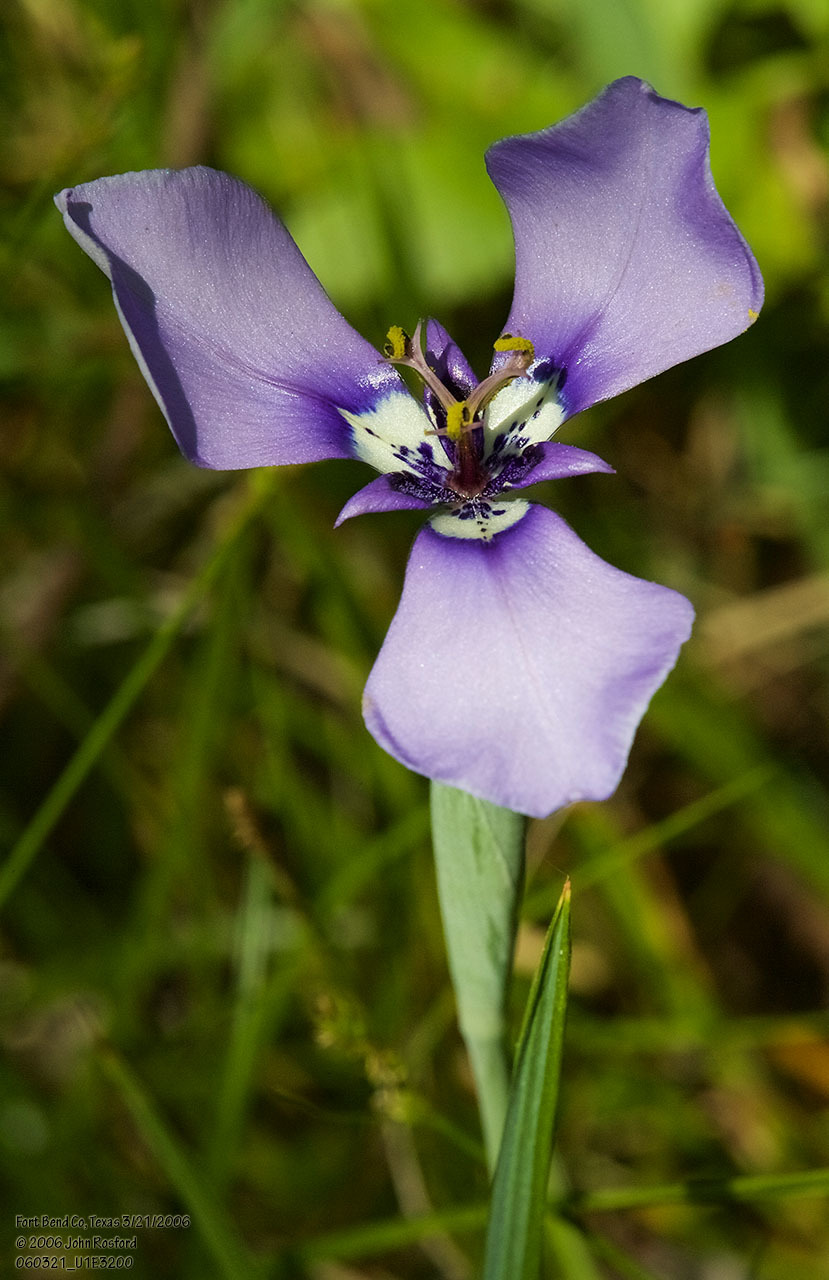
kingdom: Plantae
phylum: Tracheophyta
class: Liliopsida
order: Asparagales
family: Iridaceae
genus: Herbertia
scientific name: Herbertia lahue
